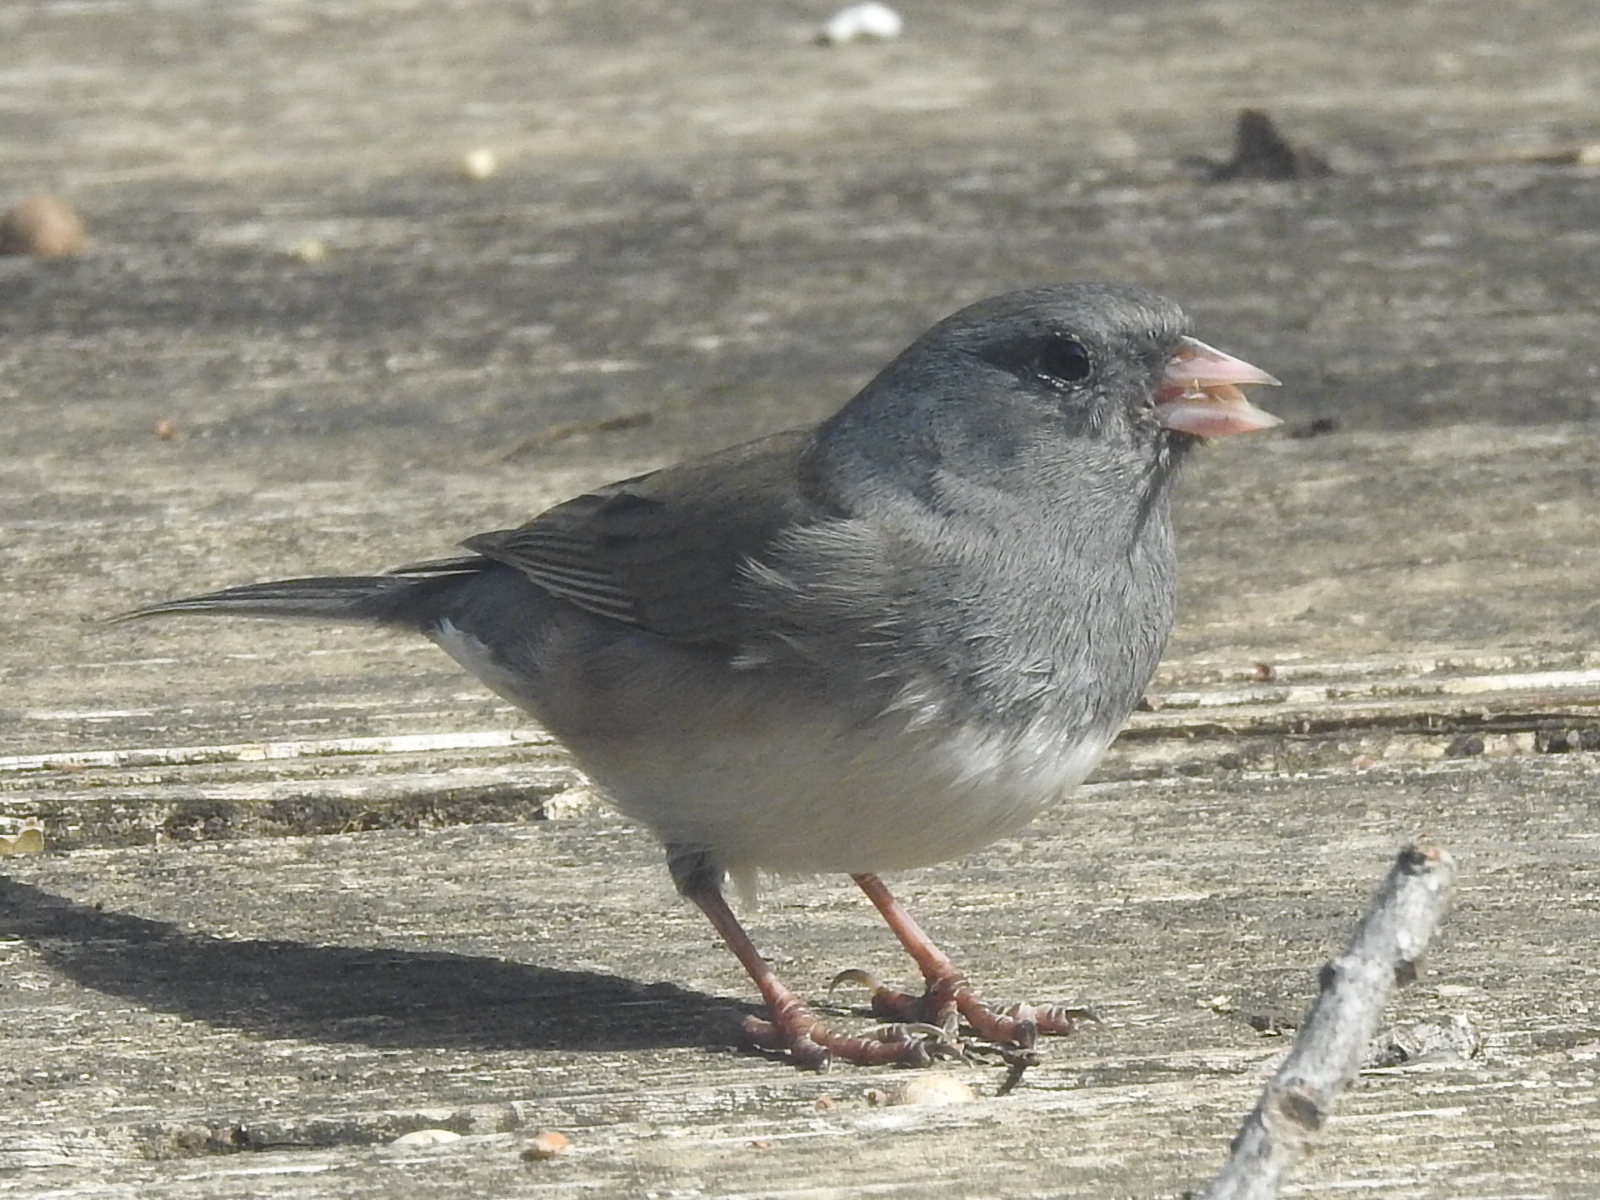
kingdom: Animalia
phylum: Chordata
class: Aves
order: Passeriformes
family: Passerellidae
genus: Junco
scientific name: Junco hyemalis
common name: Dark-eyed junco
